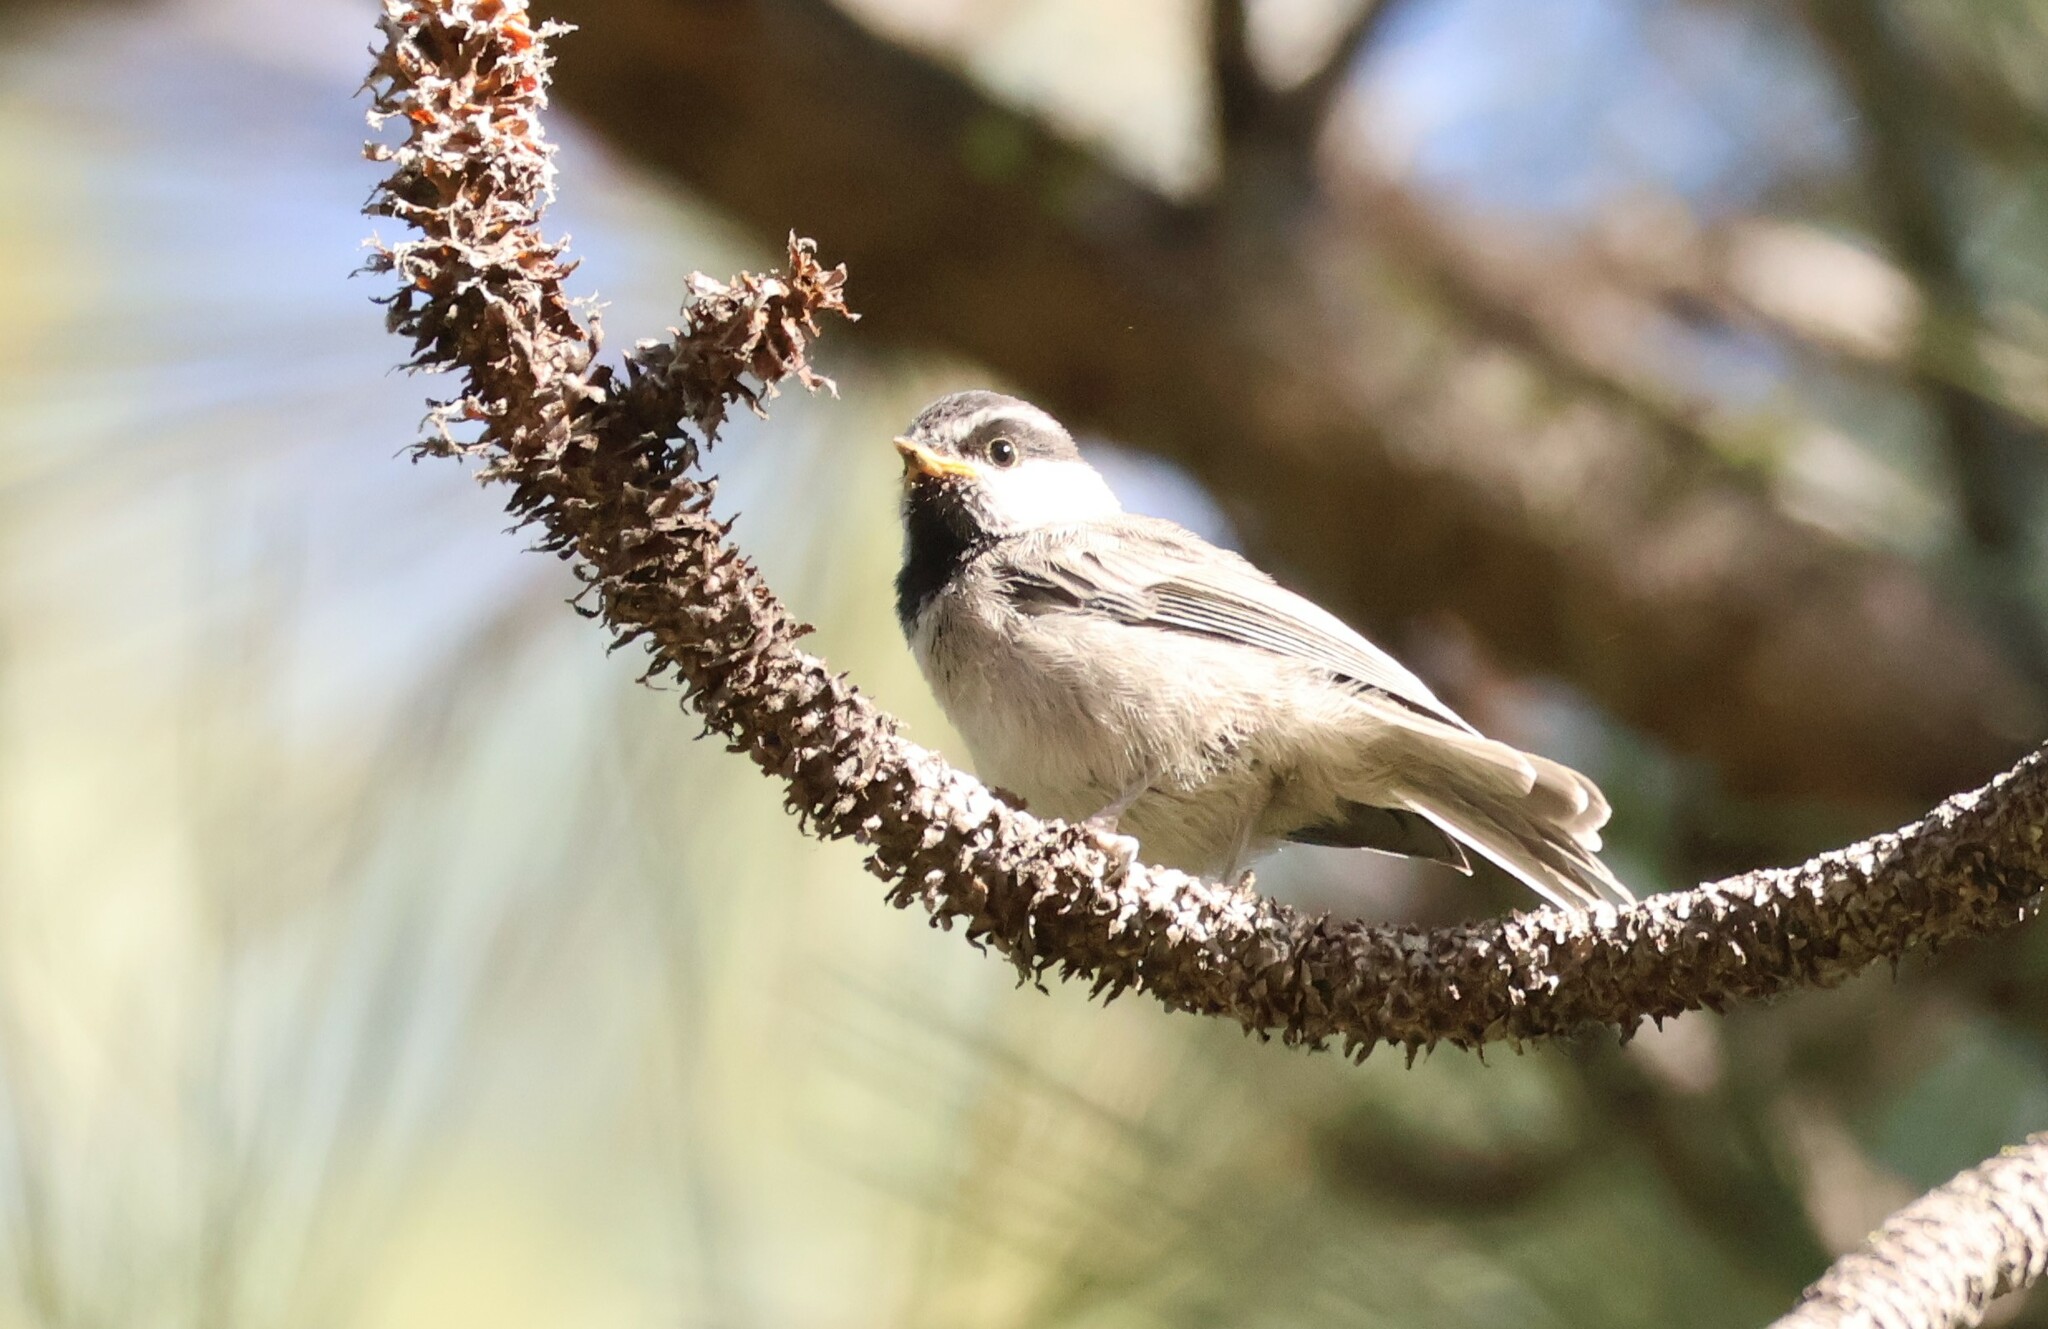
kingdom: Animalia
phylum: Chordata
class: Aves
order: Passeriformes
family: Paridae
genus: Poecile
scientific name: Poecile gambeli
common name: Mountain chickadee
